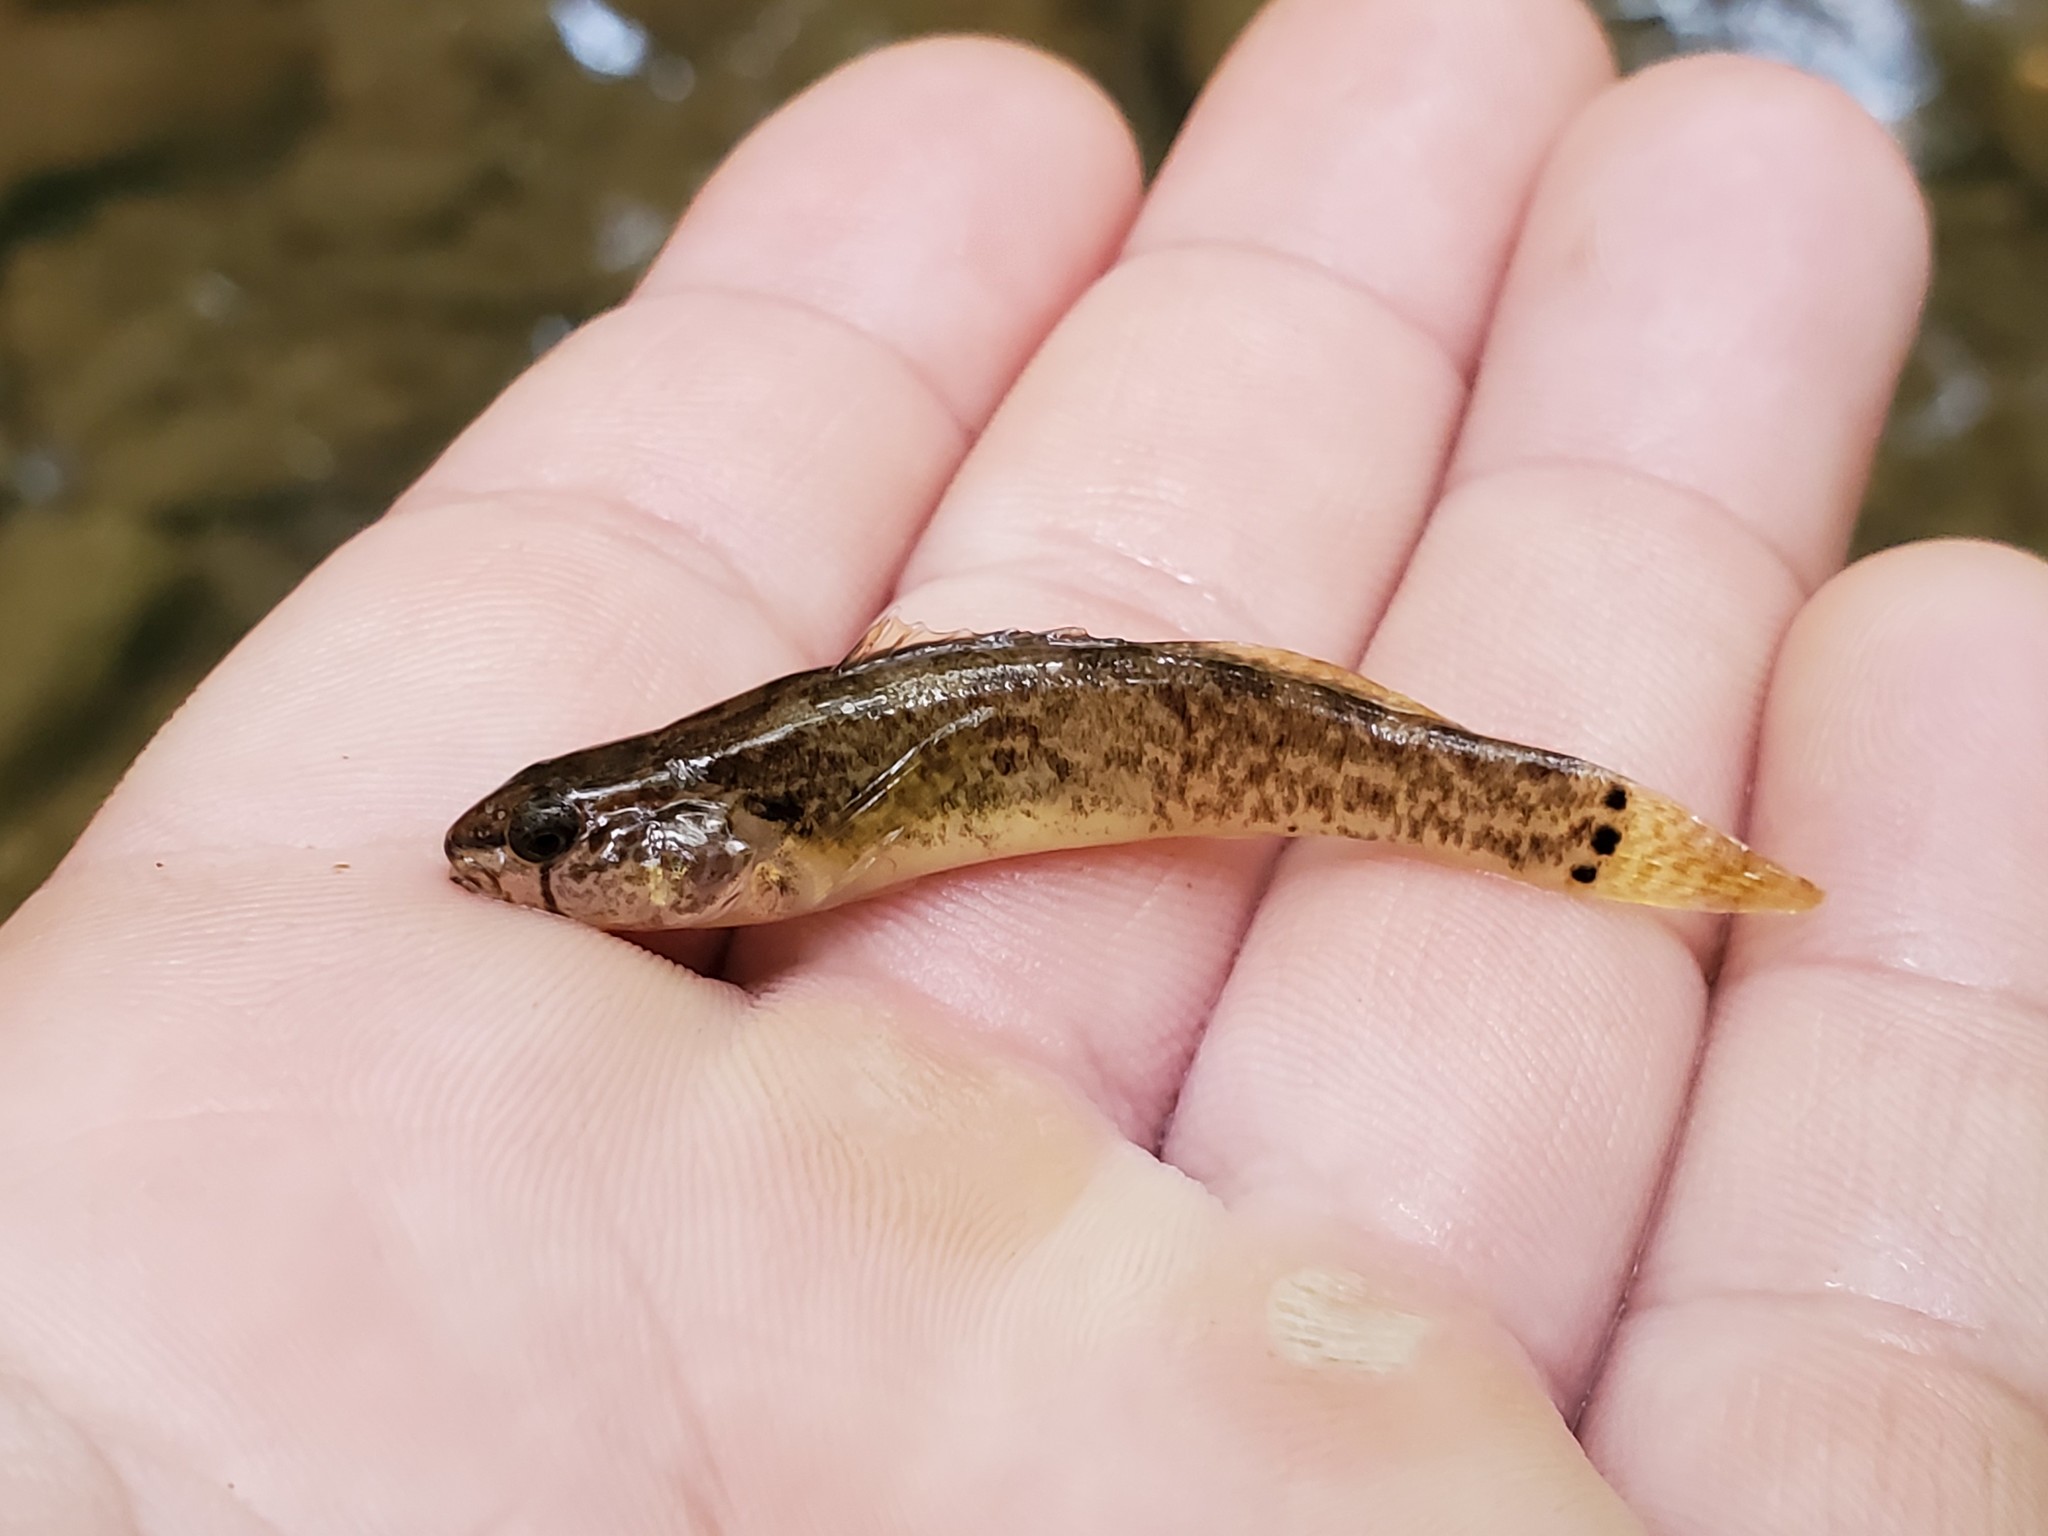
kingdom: Animalia
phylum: Chordata
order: Perciformes
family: Percidae
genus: Etheostoma
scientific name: Etheostoma crossopterum
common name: Fringed darter
